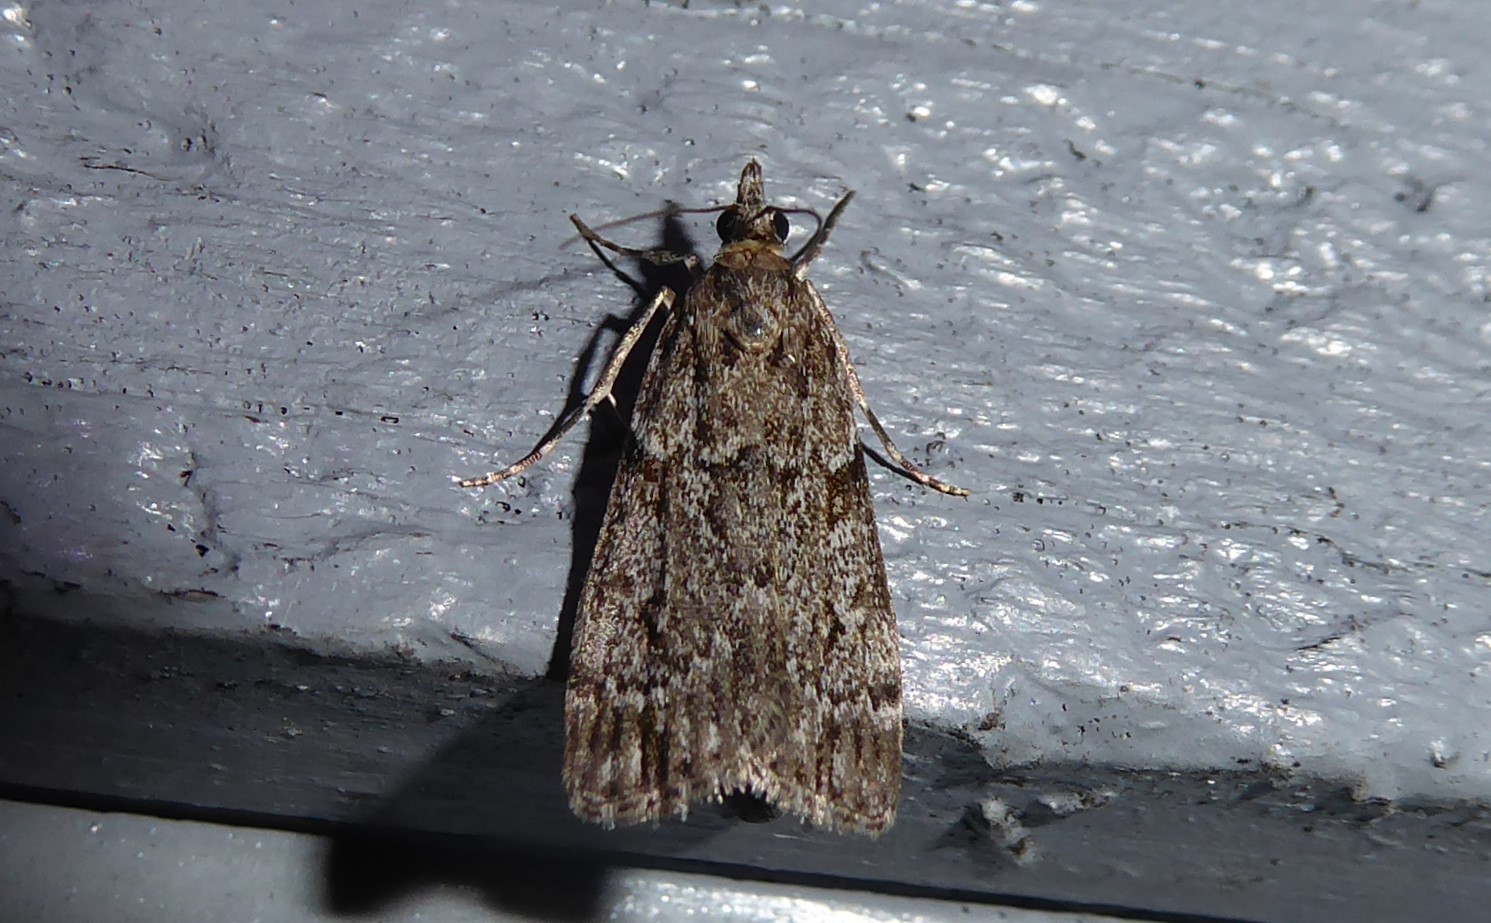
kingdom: Animalia
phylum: Arthropoda
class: Insecta
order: Lepidoptera
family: Crambidae
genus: Eudonia
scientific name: Eudonia cymatias
